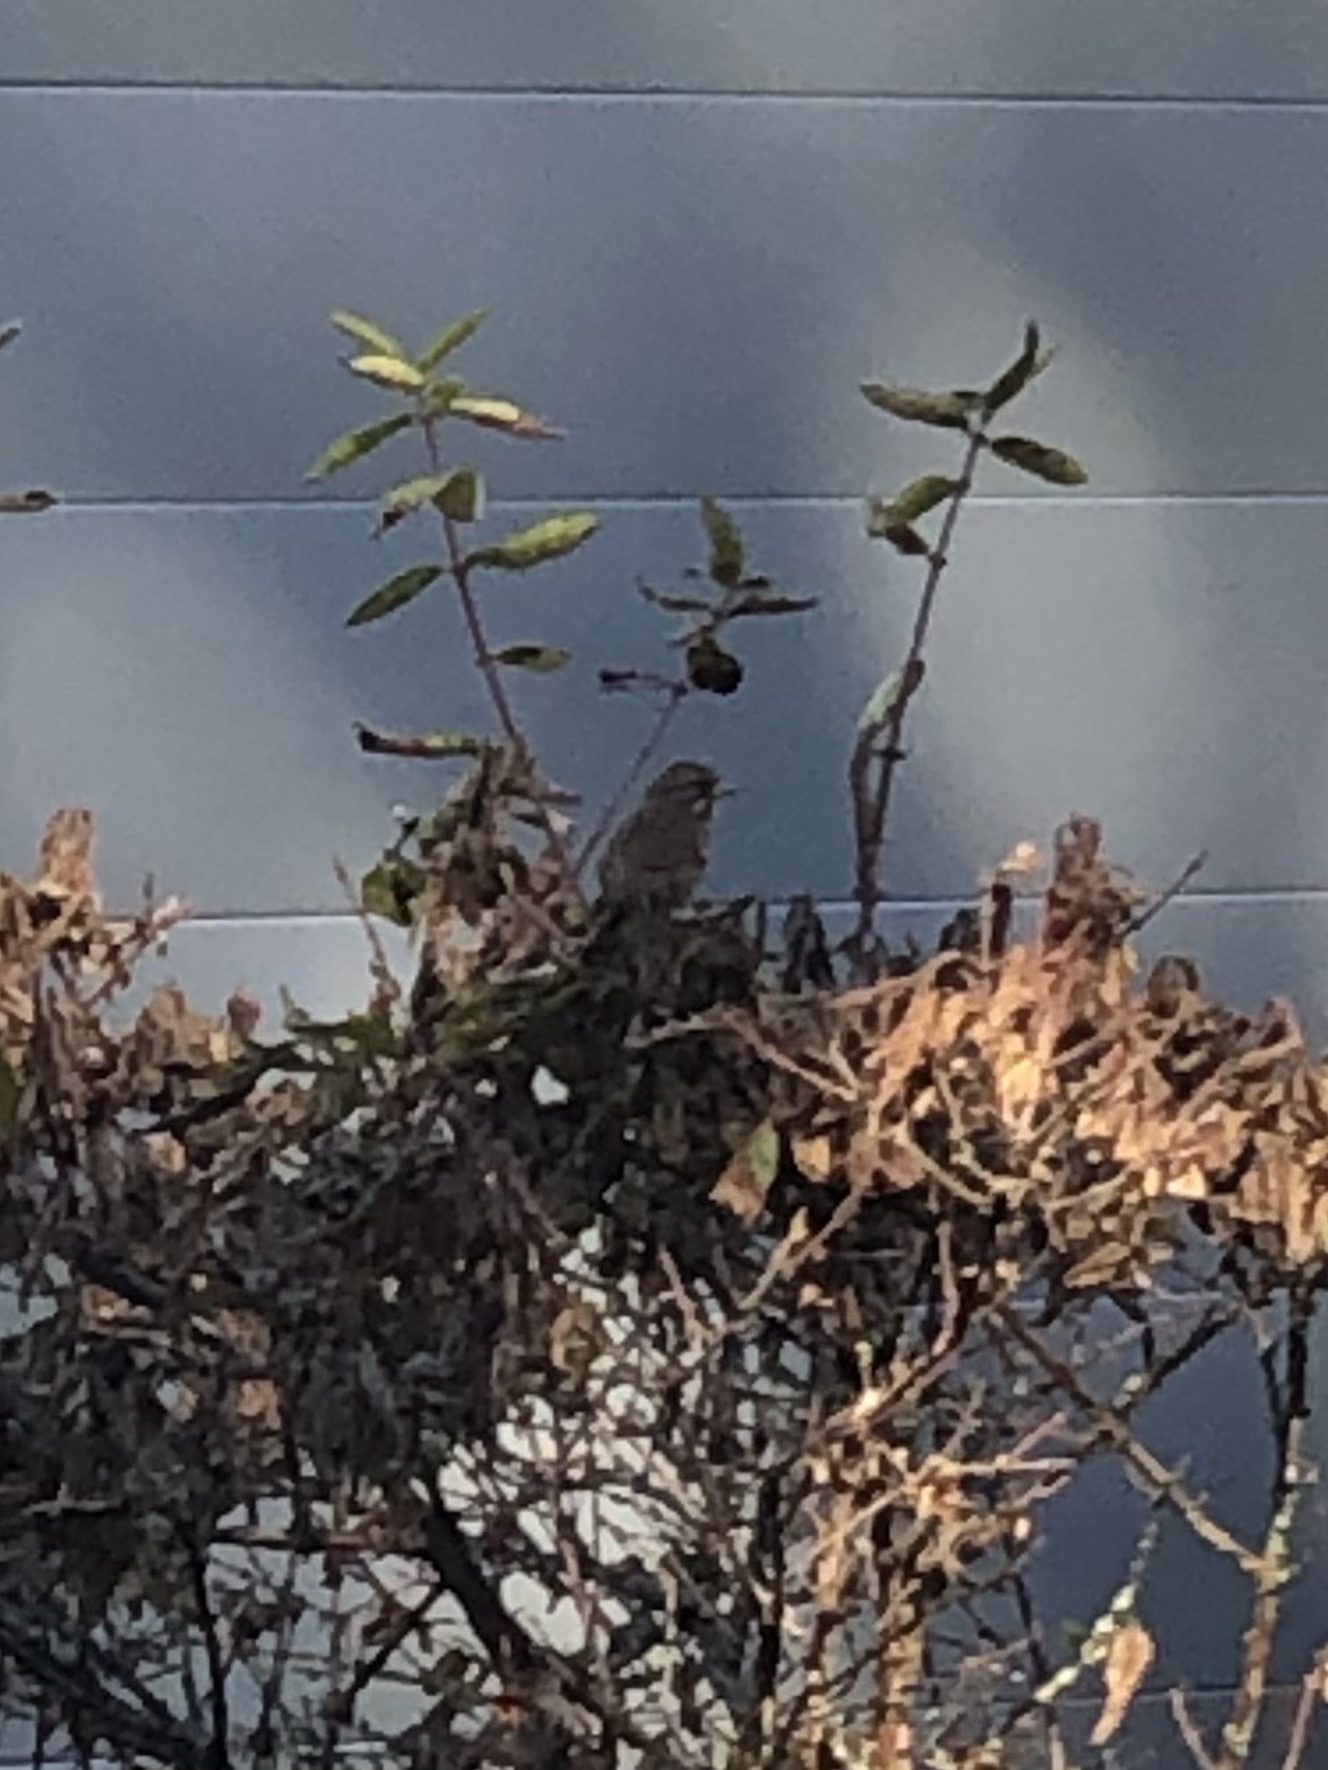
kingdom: Animalia
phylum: Chordata
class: Aves
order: Passeriformes
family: Passerellidae
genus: Melospiza
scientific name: Melospiza melodia
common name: Song sparrow
